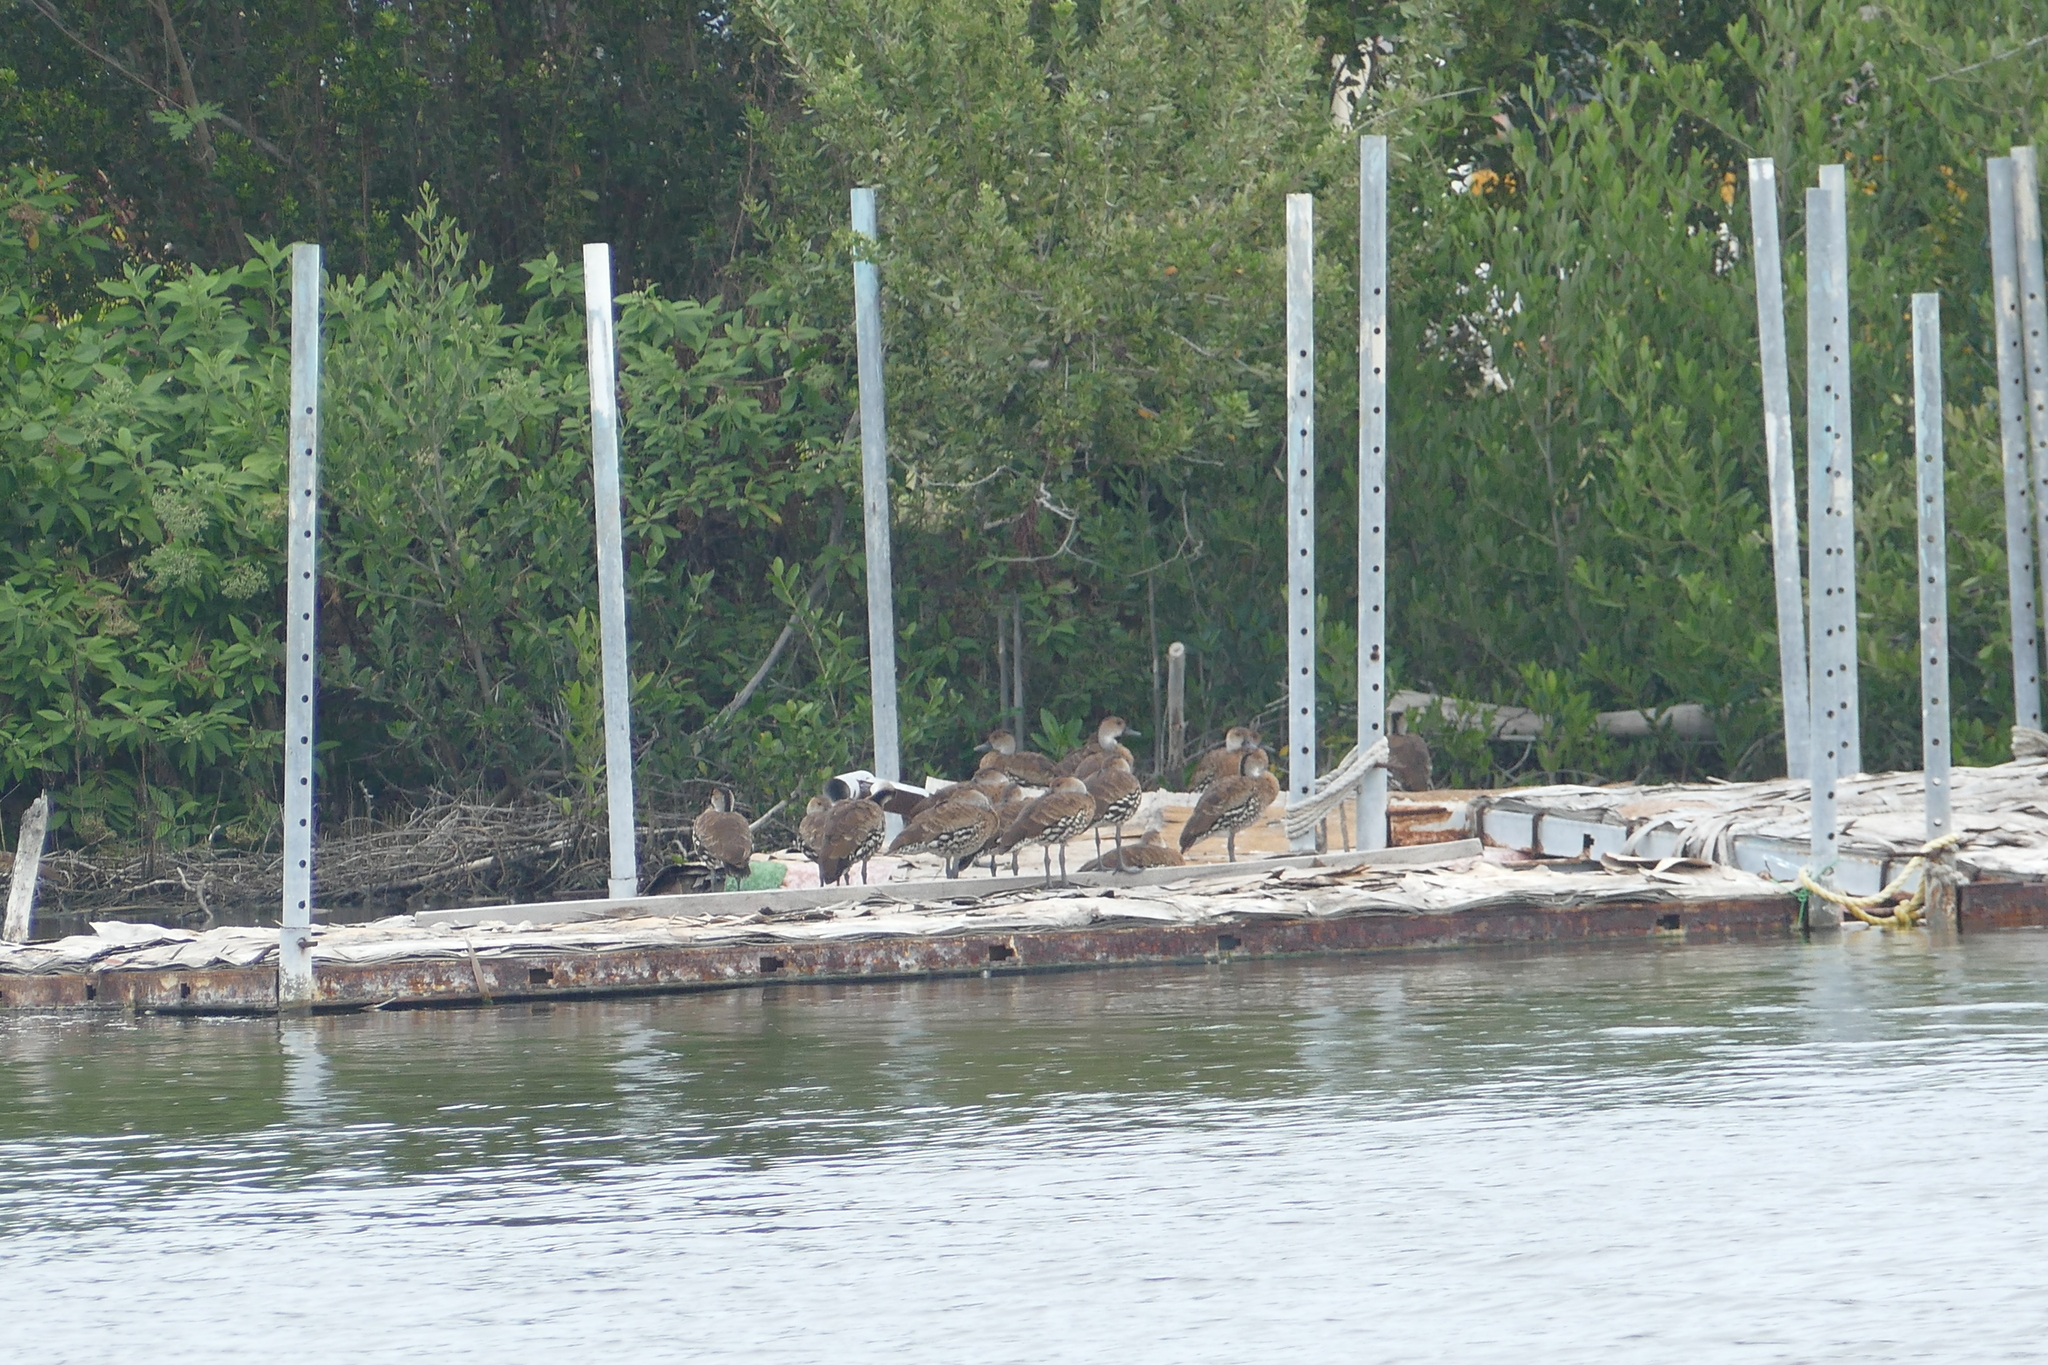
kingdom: Animalia
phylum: Chordata
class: Aves
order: Anseriformes
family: Anatidae
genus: Dendrocygna
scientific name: Dendrocygna arborea
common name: West indian whistling duck
